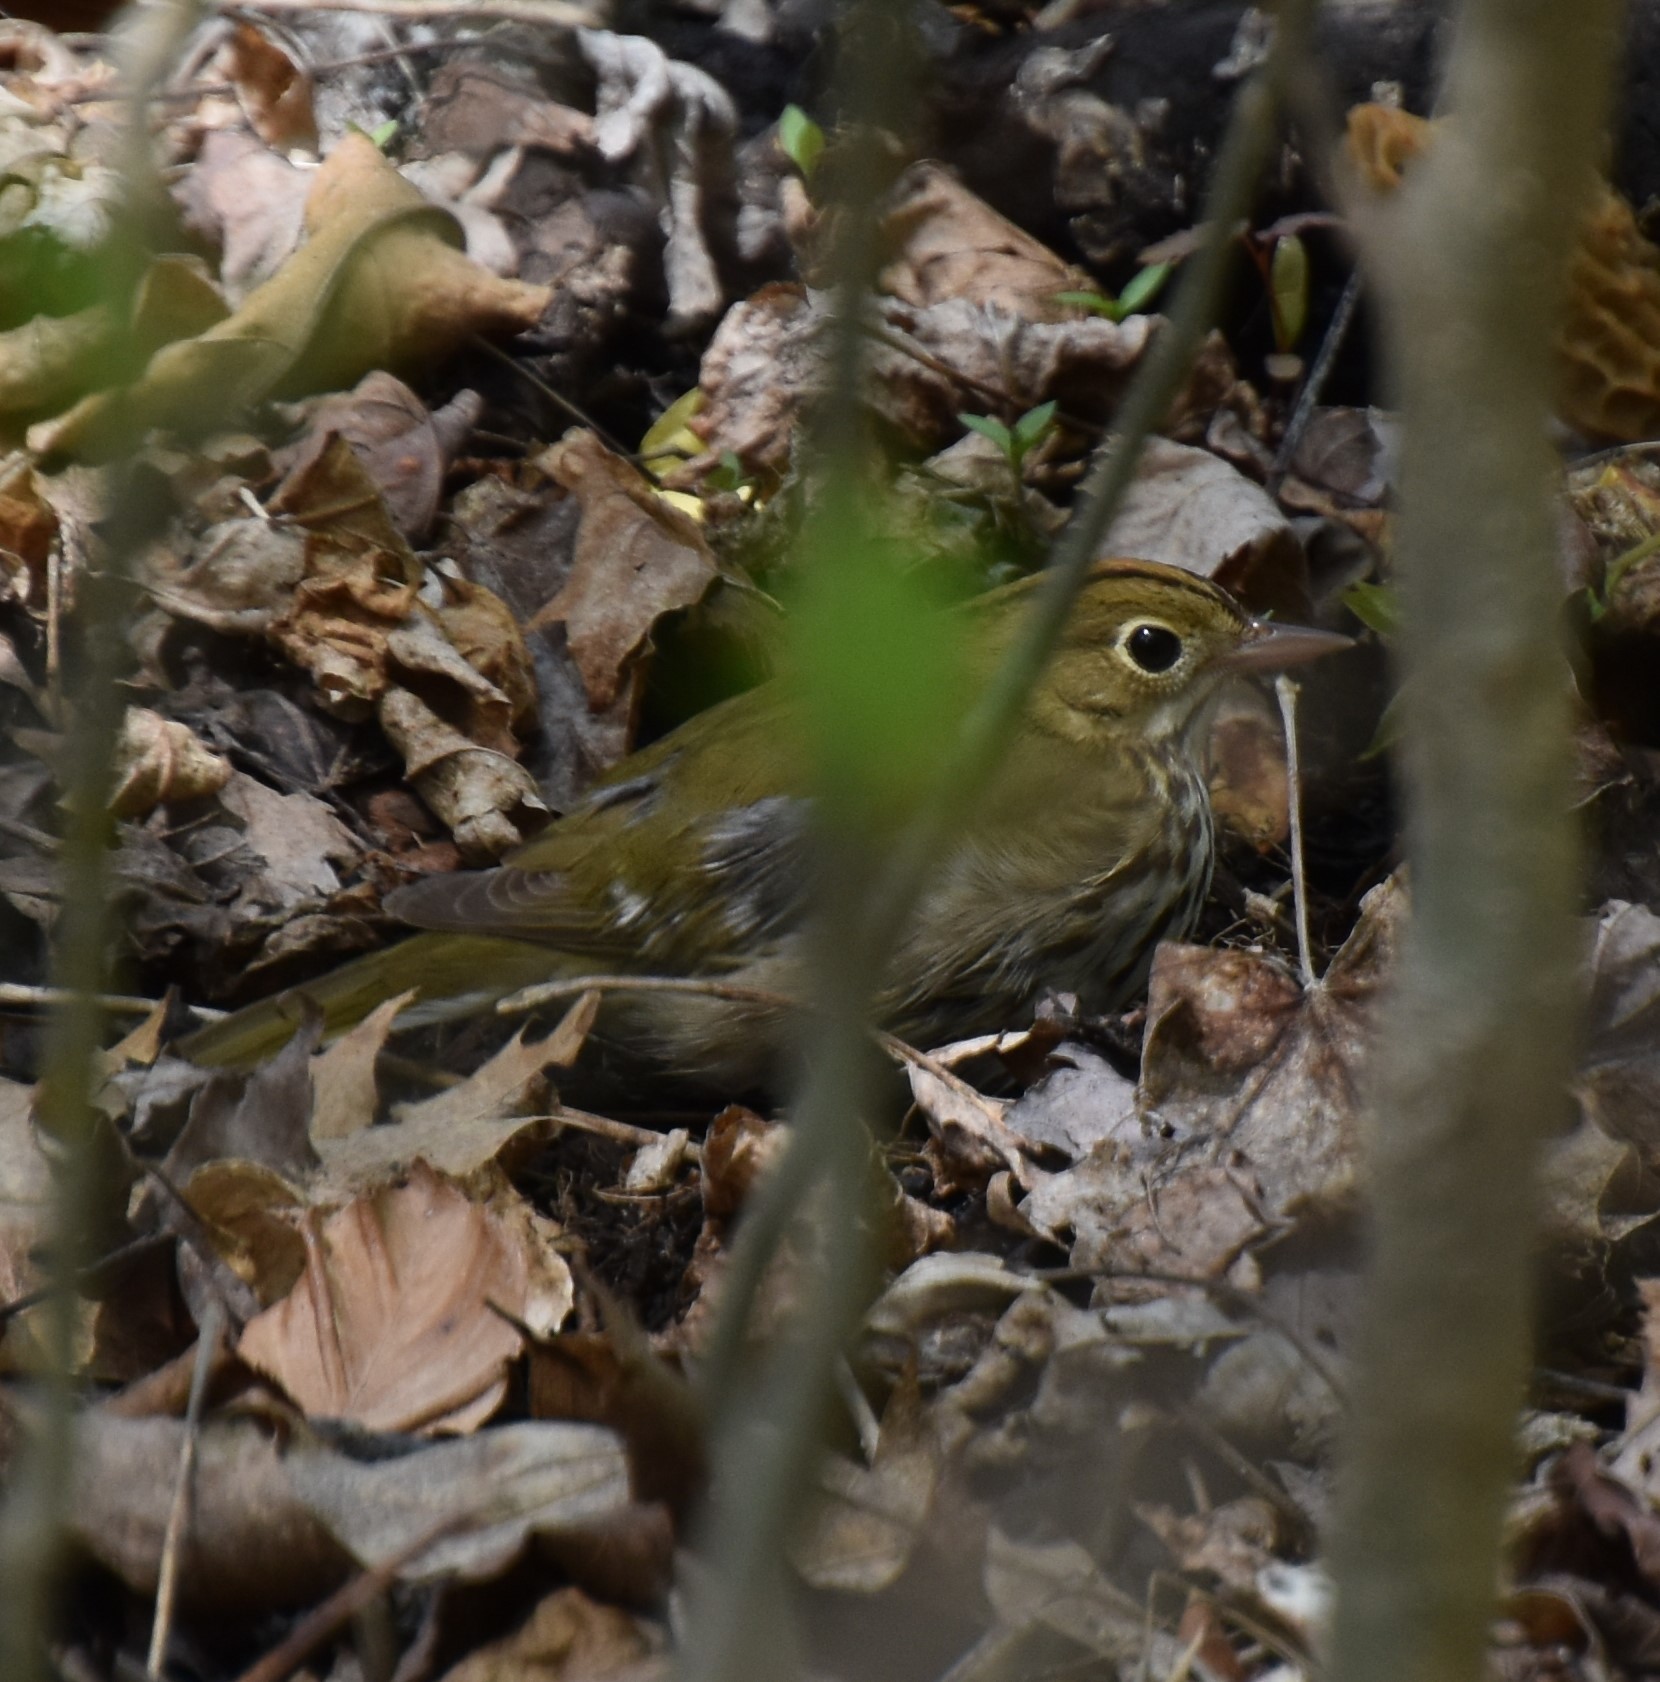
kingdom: Animalia
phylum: Chordata
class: Aves
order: Passeriformes
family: Parulidae
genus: Seiurus
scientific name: Seiurus aurocapilla
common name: Ovenbird
